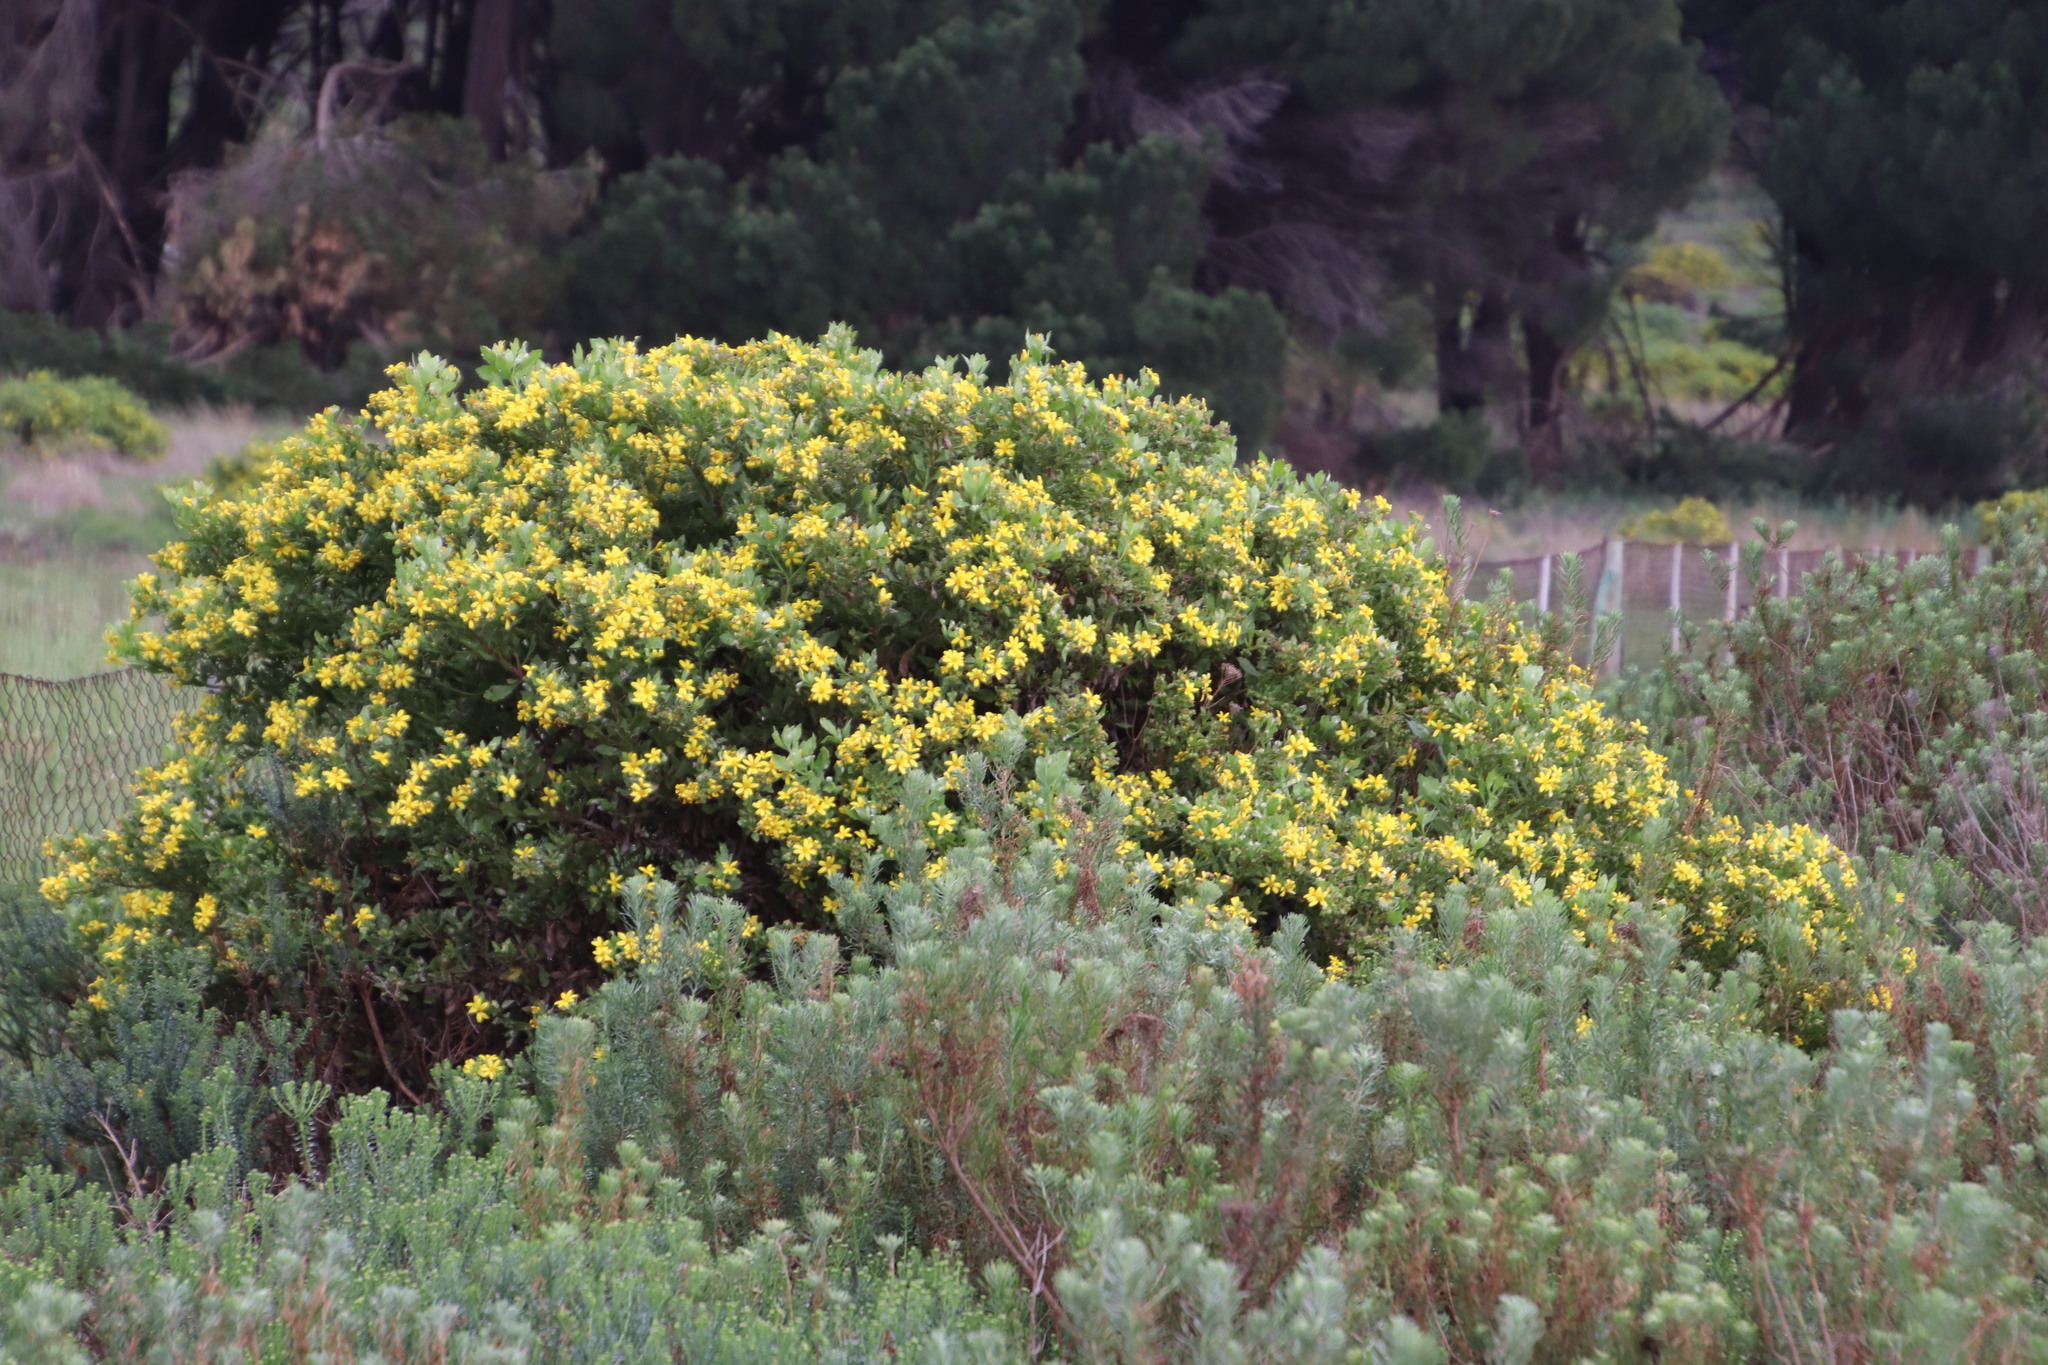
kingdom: Plantae
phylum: Tracheophyta
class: Magnoliopsida
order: Asterales
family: Asteraceae
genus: Osteospermum
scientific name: Osteospermum moniliferum
